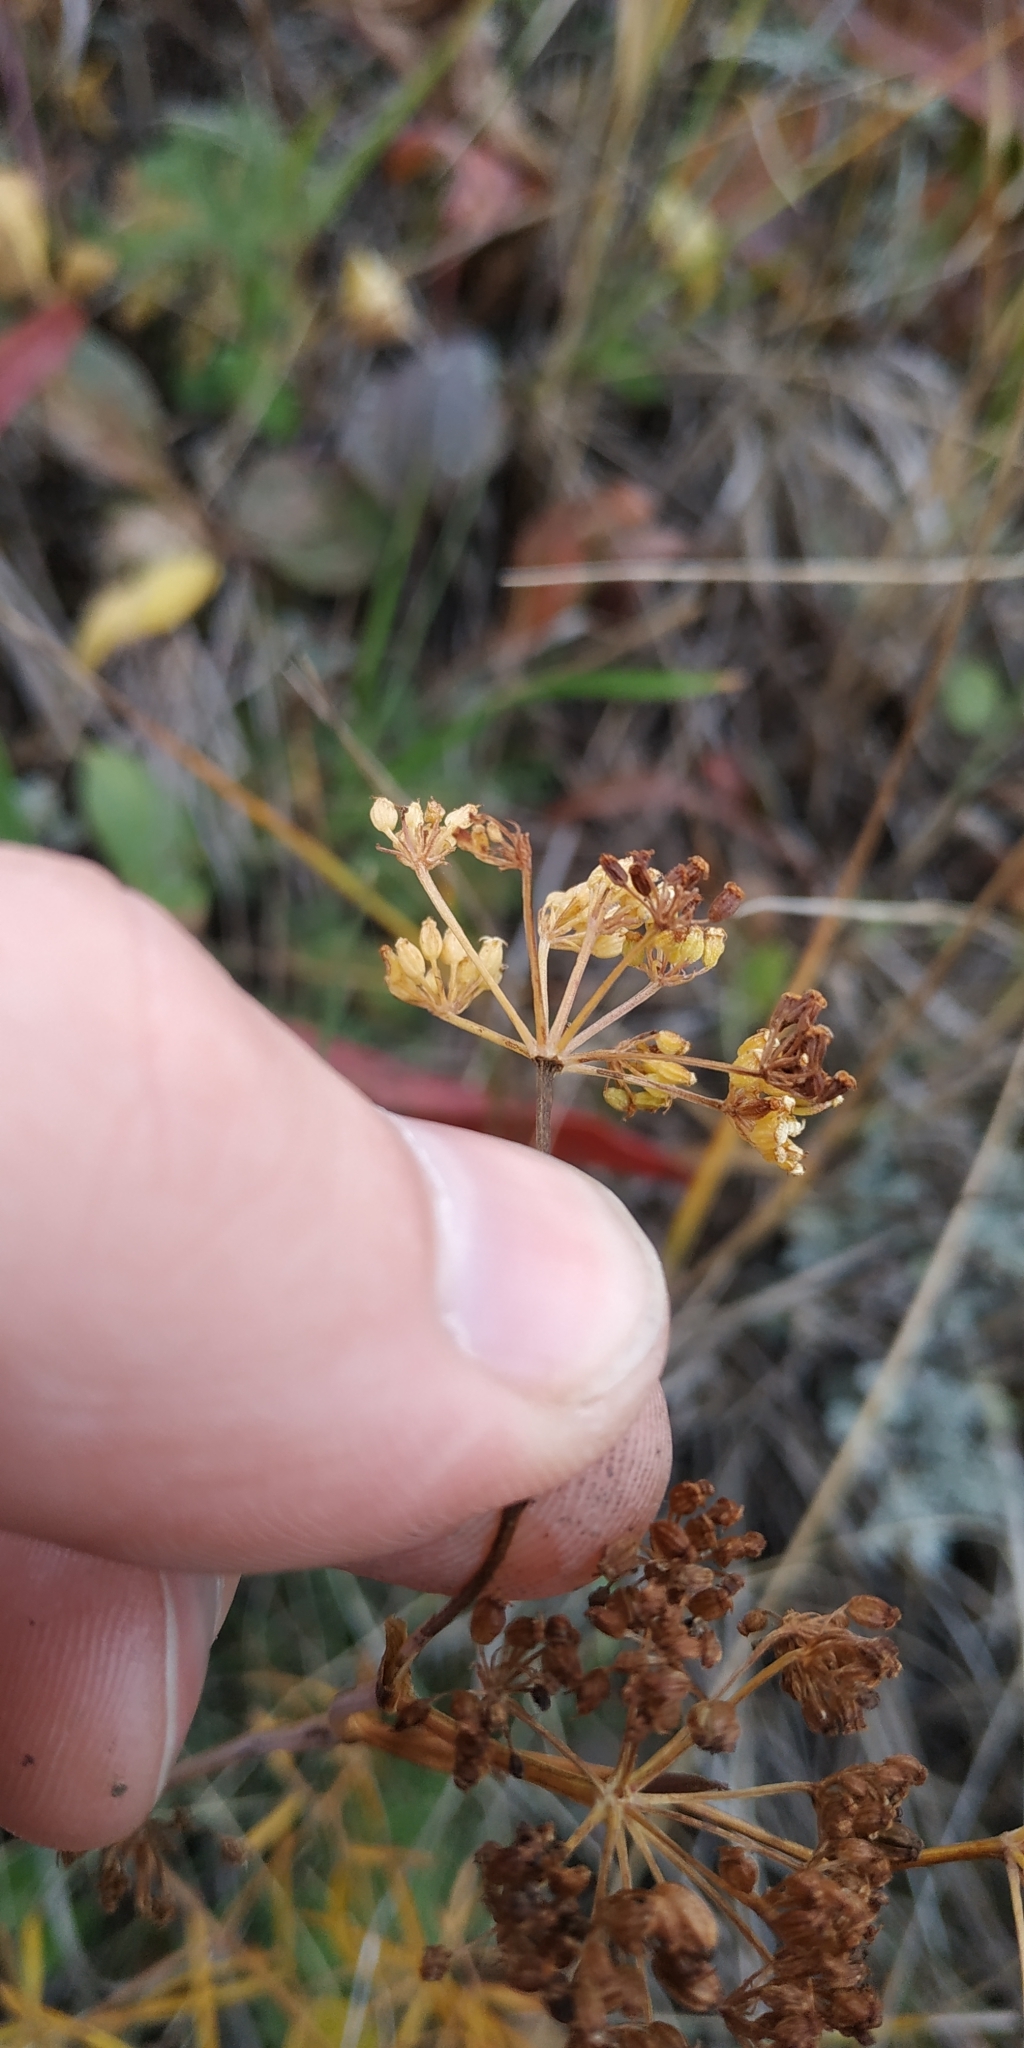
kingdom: Plantae
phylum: Tracheophyta
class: Magnoliopsida
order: Apiales
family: Apiaceae
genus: Silaum
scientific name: Silaum silaus
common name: Pepper-saxifrage
